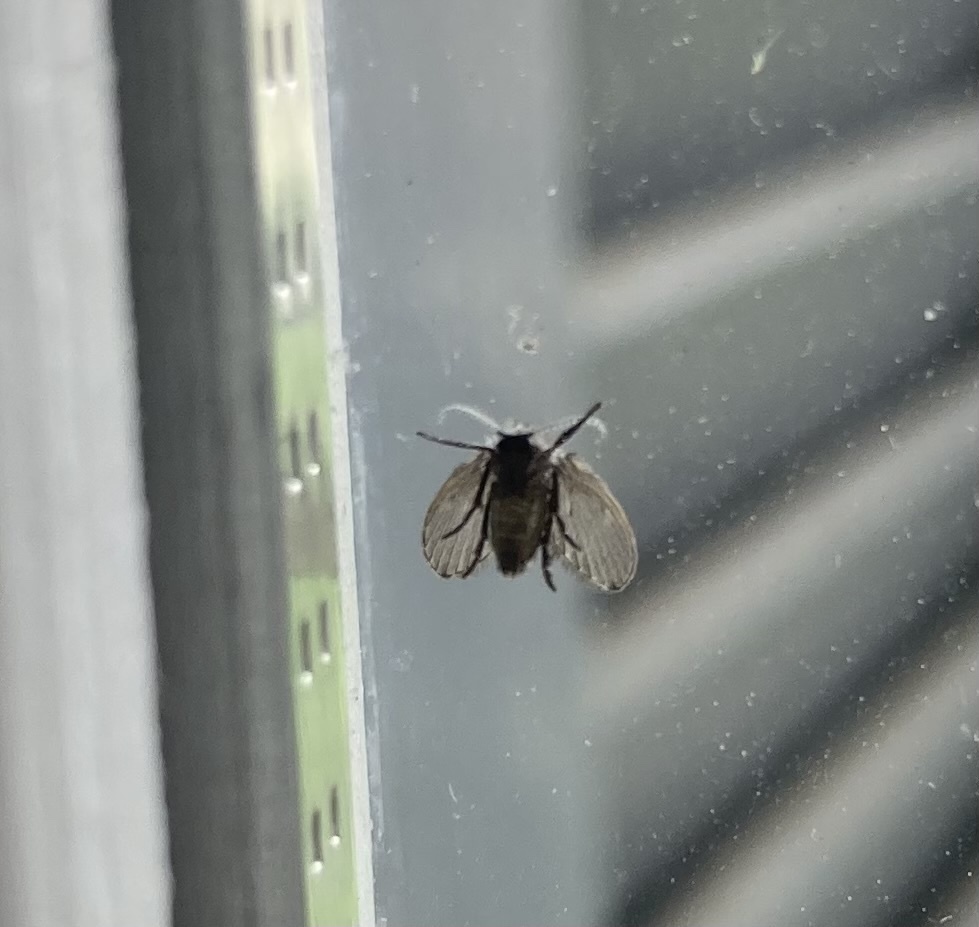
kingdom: Animalia
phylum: Arthropoda
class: Insecta
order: Diptera
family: Psychodidae
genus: Clogmia
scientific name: Clogmia albipunctatus
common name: White-spotted moth fly
